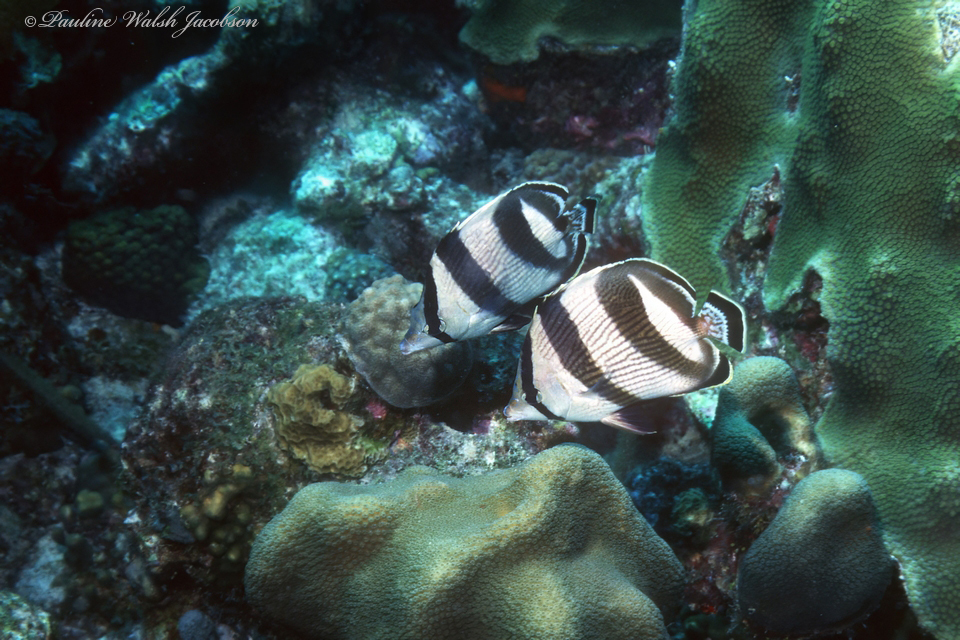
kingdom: Animalia
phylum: Chordata
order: Perciformes
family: Chaetodontidae
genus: Chaetodon
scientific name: Chaetodon striatus
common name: Banded butterflyfish
